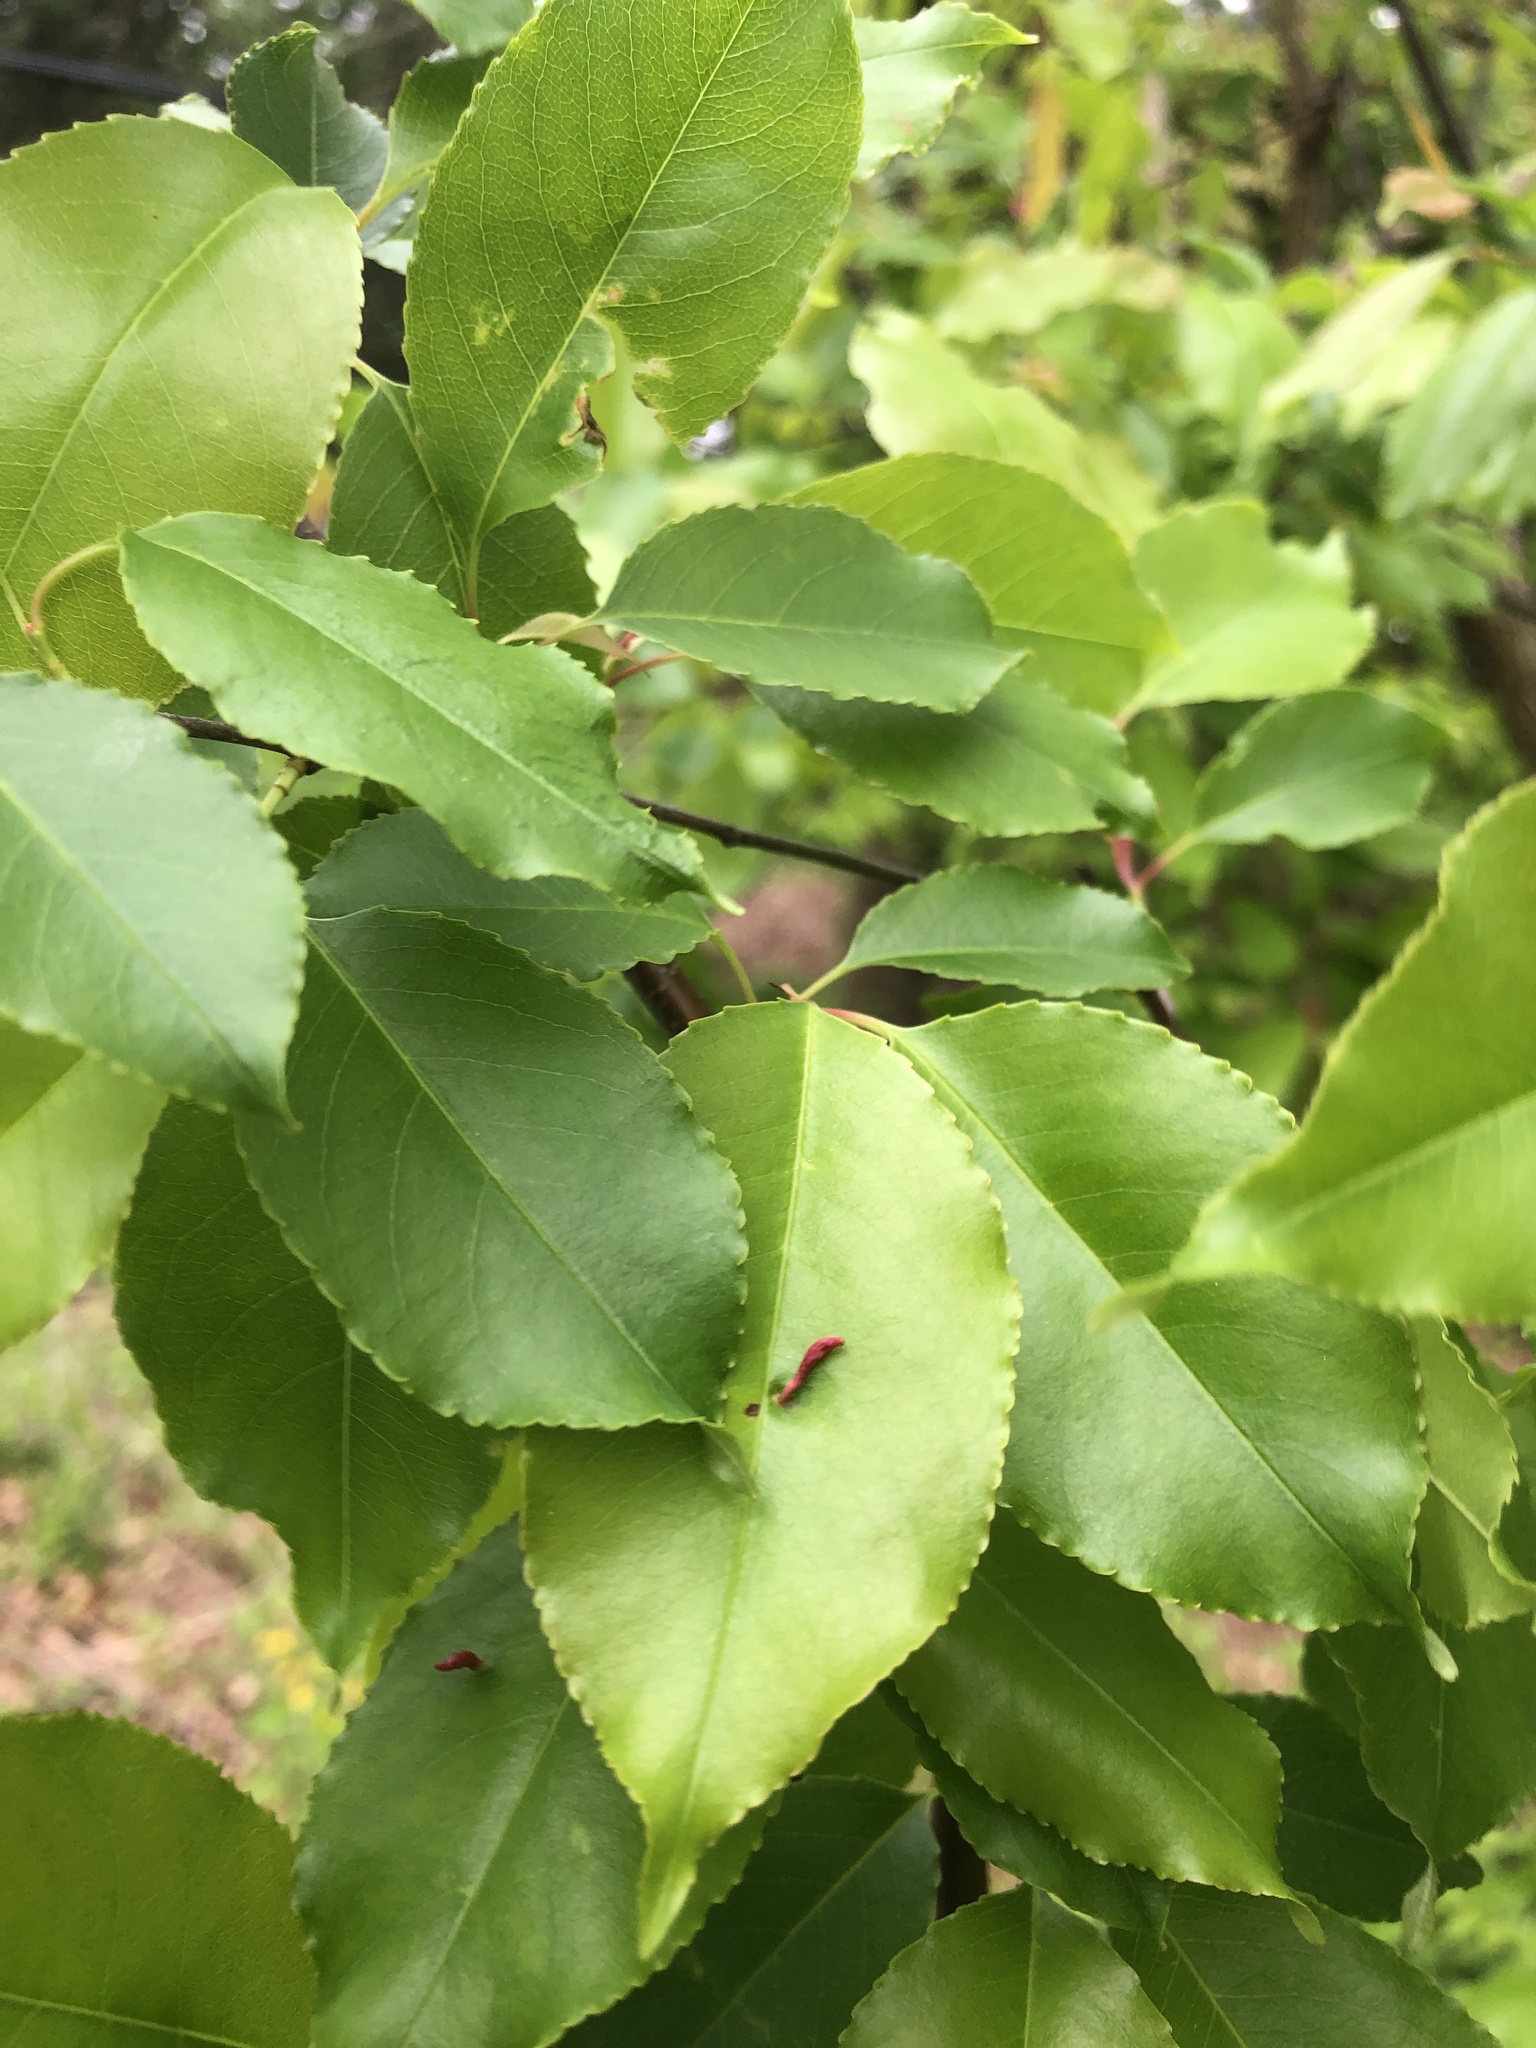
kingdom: Animalia
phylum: Arthropoda
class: Arachnida
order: Trombidiformes
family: Eriophyidae
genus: Eriophyes
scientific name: Eriophyes
